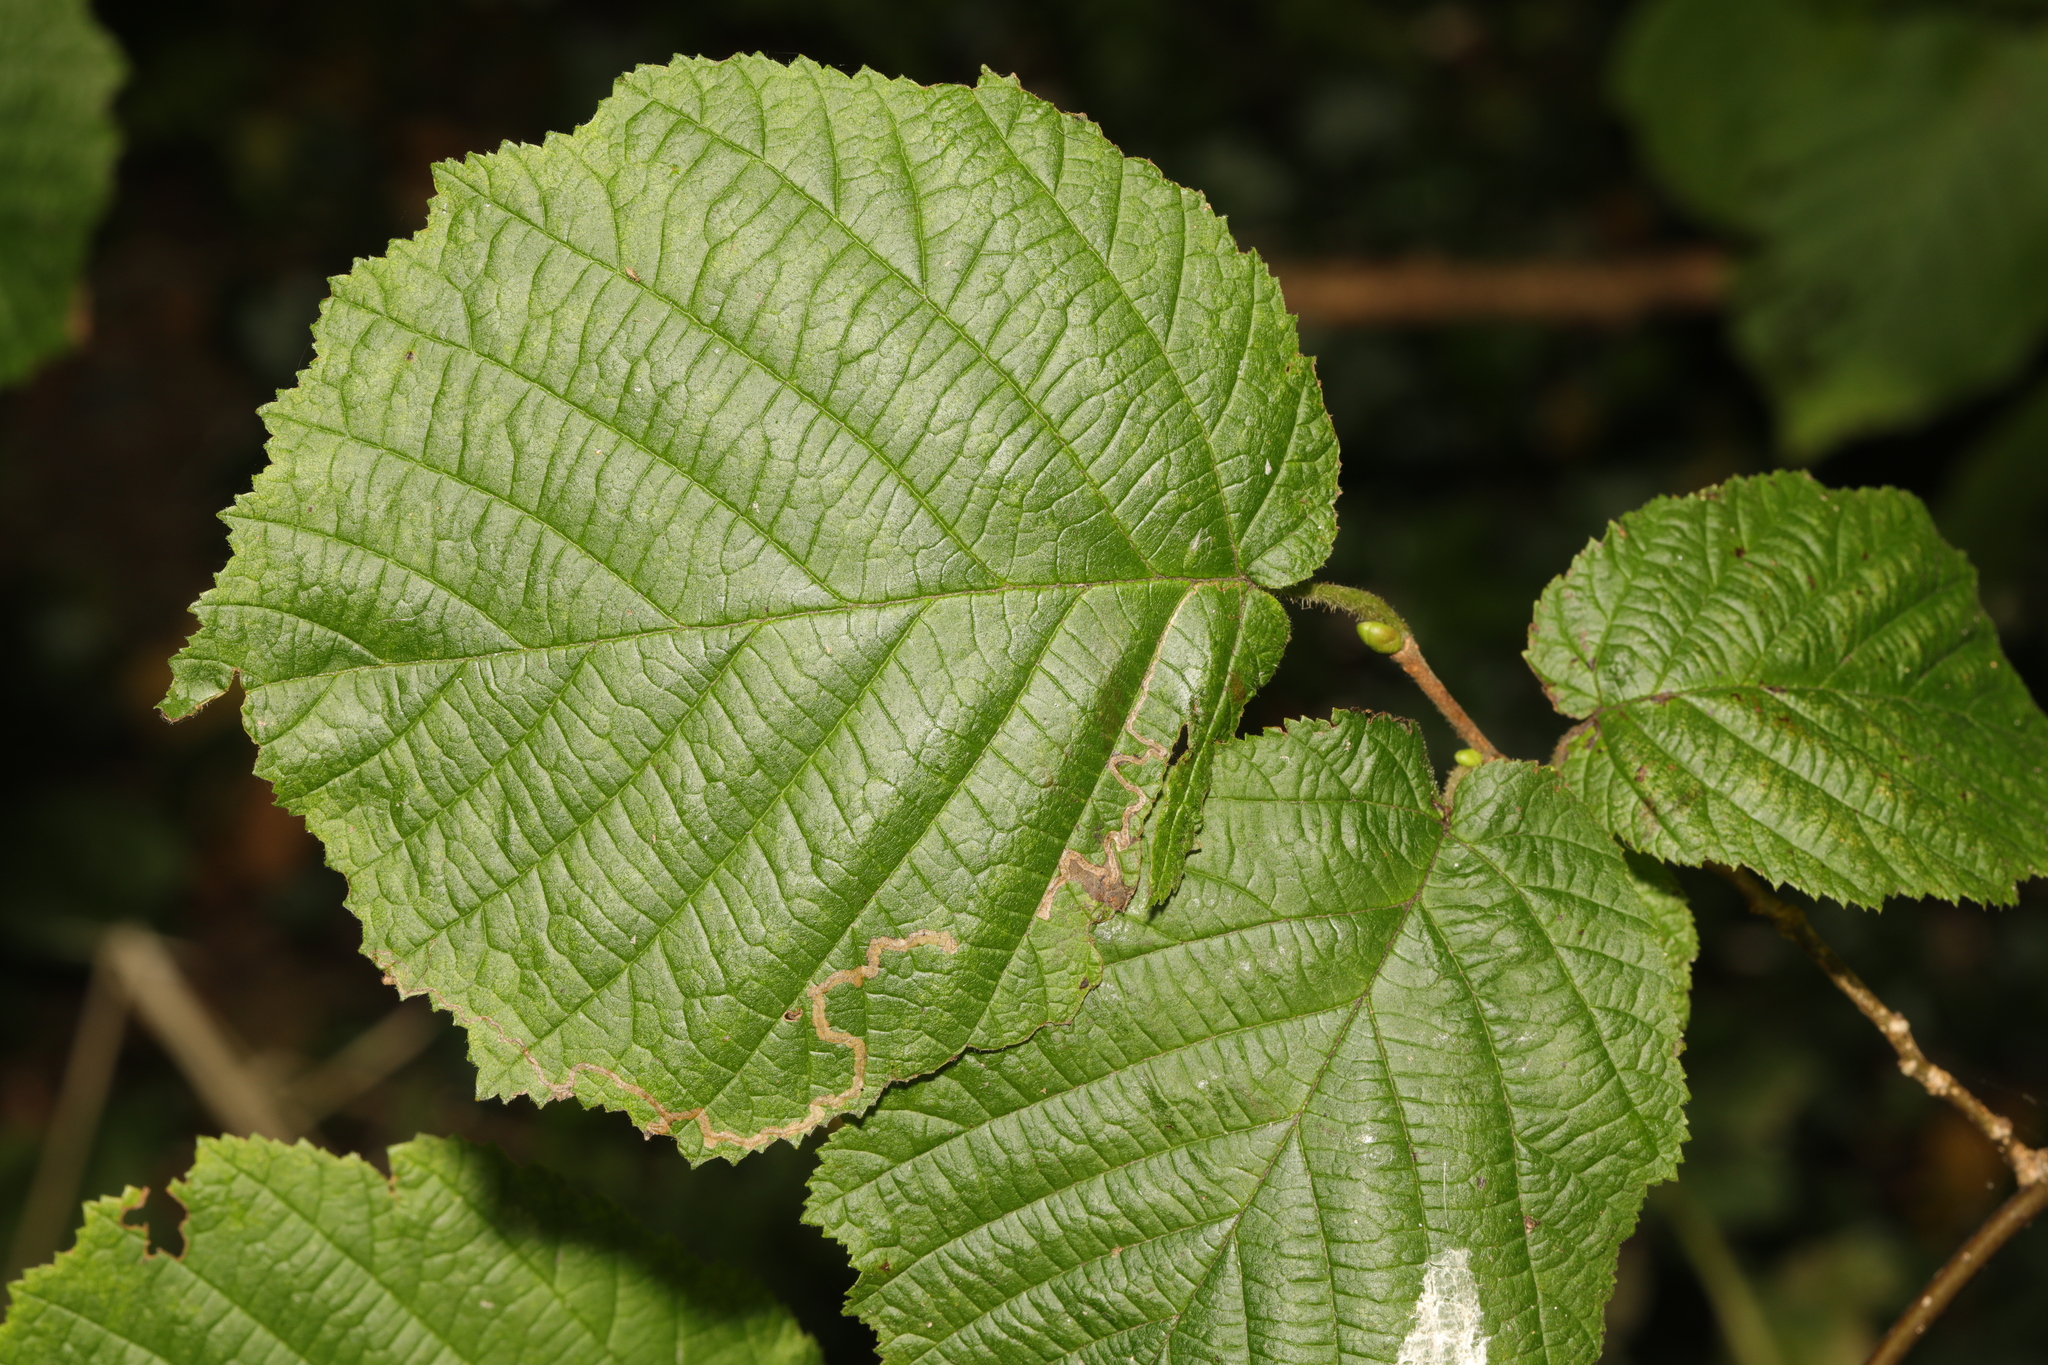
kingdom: Plantae
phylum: Tracheophyta
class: Magnoliopsida
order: Fagales
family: Betulaceae
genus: Corylus
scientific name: Corylus avellana
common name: European hazel
